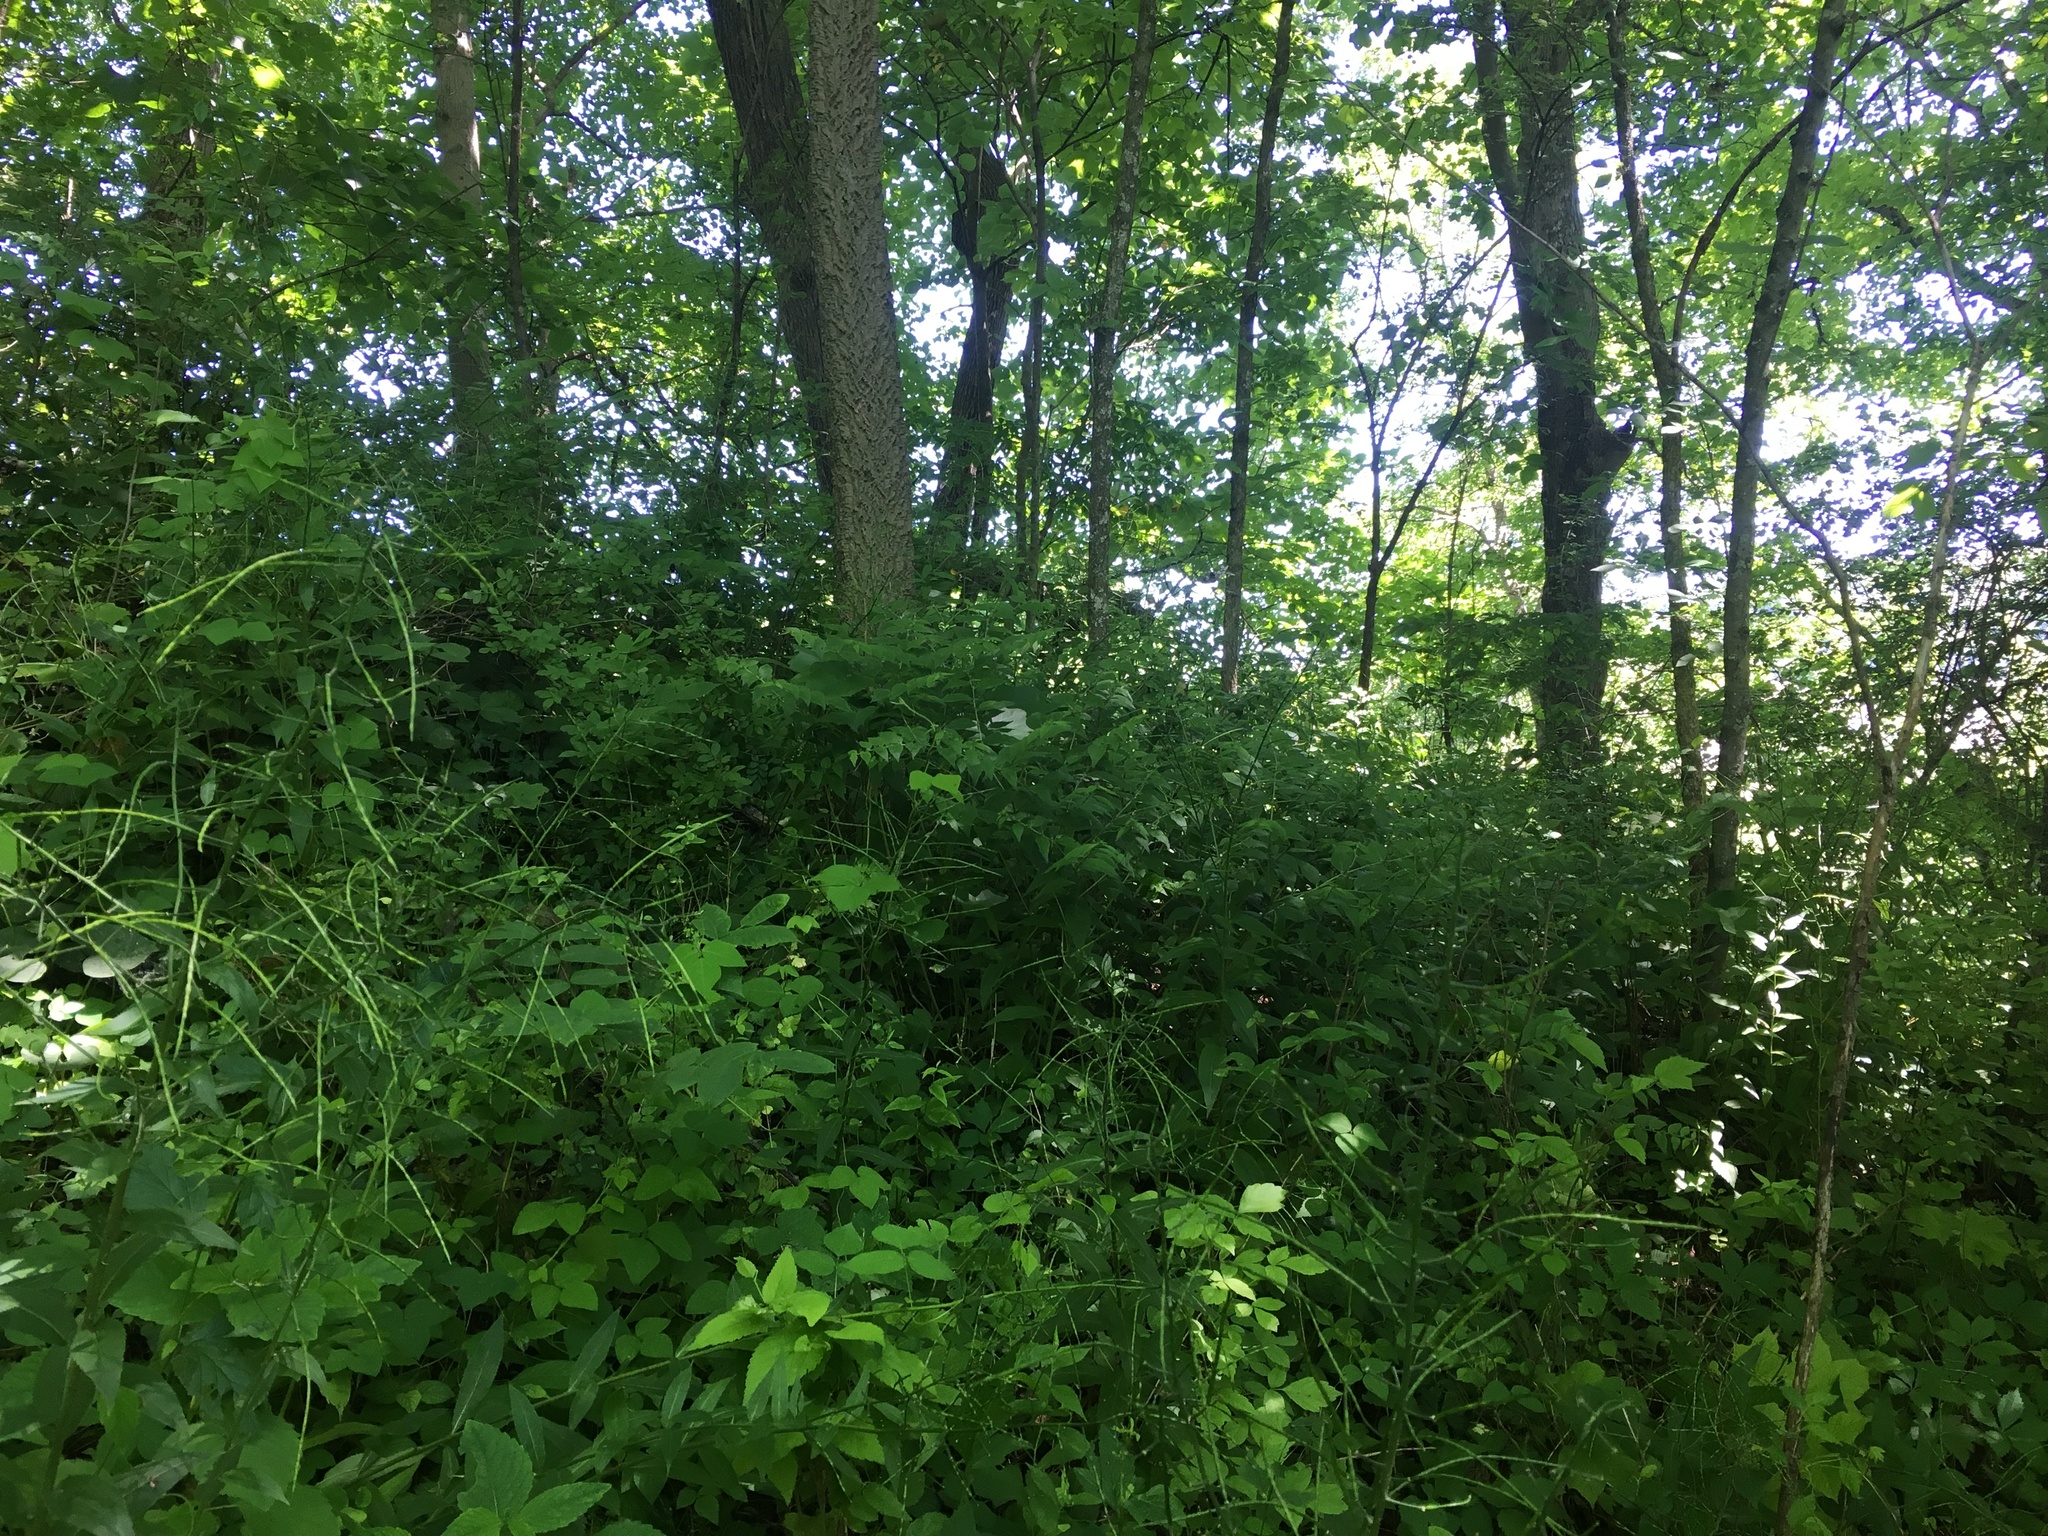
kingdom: Plantae
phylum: Tracheophyta
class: Magnoliopsida
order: Boraginales
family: Boraginaceae
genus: Lithospermum
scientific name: Lithospermum latifolium
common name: American gromwell
